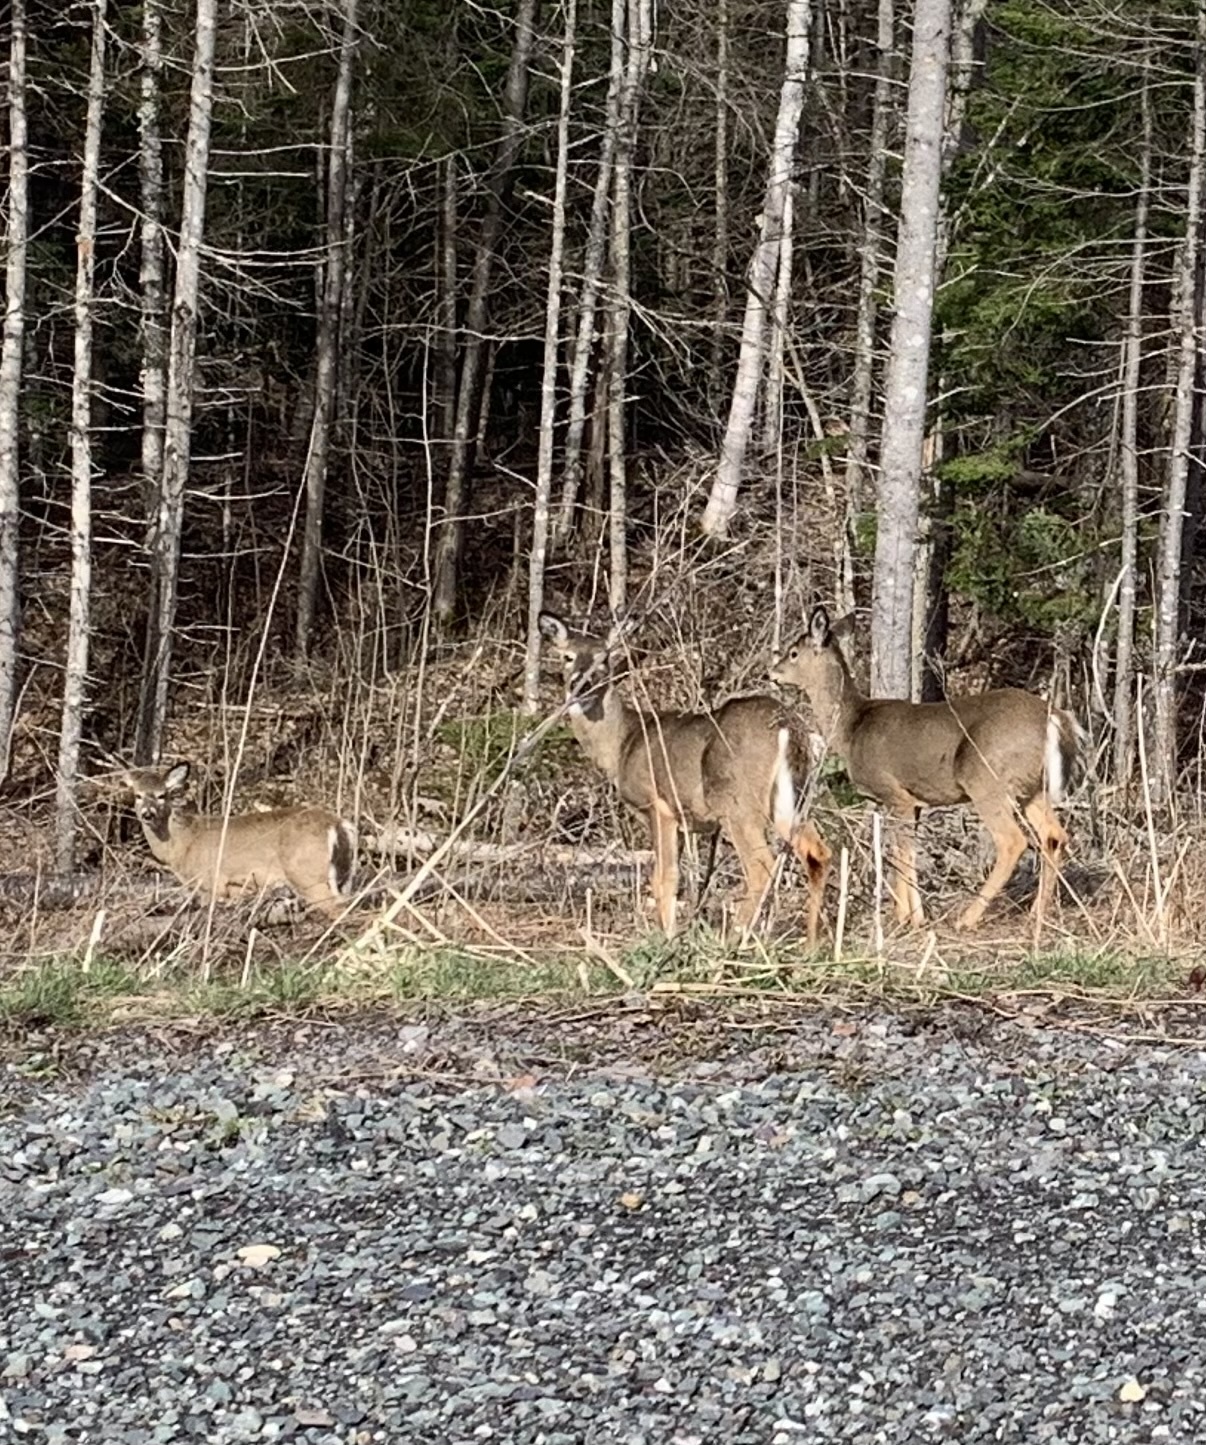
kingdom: Animalia
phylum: Chordata
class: Mammalia
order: Artiodactyla
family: Cervidae
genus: Odocoileus
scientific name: Odocoileus virginianus
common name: White-tailed deer
